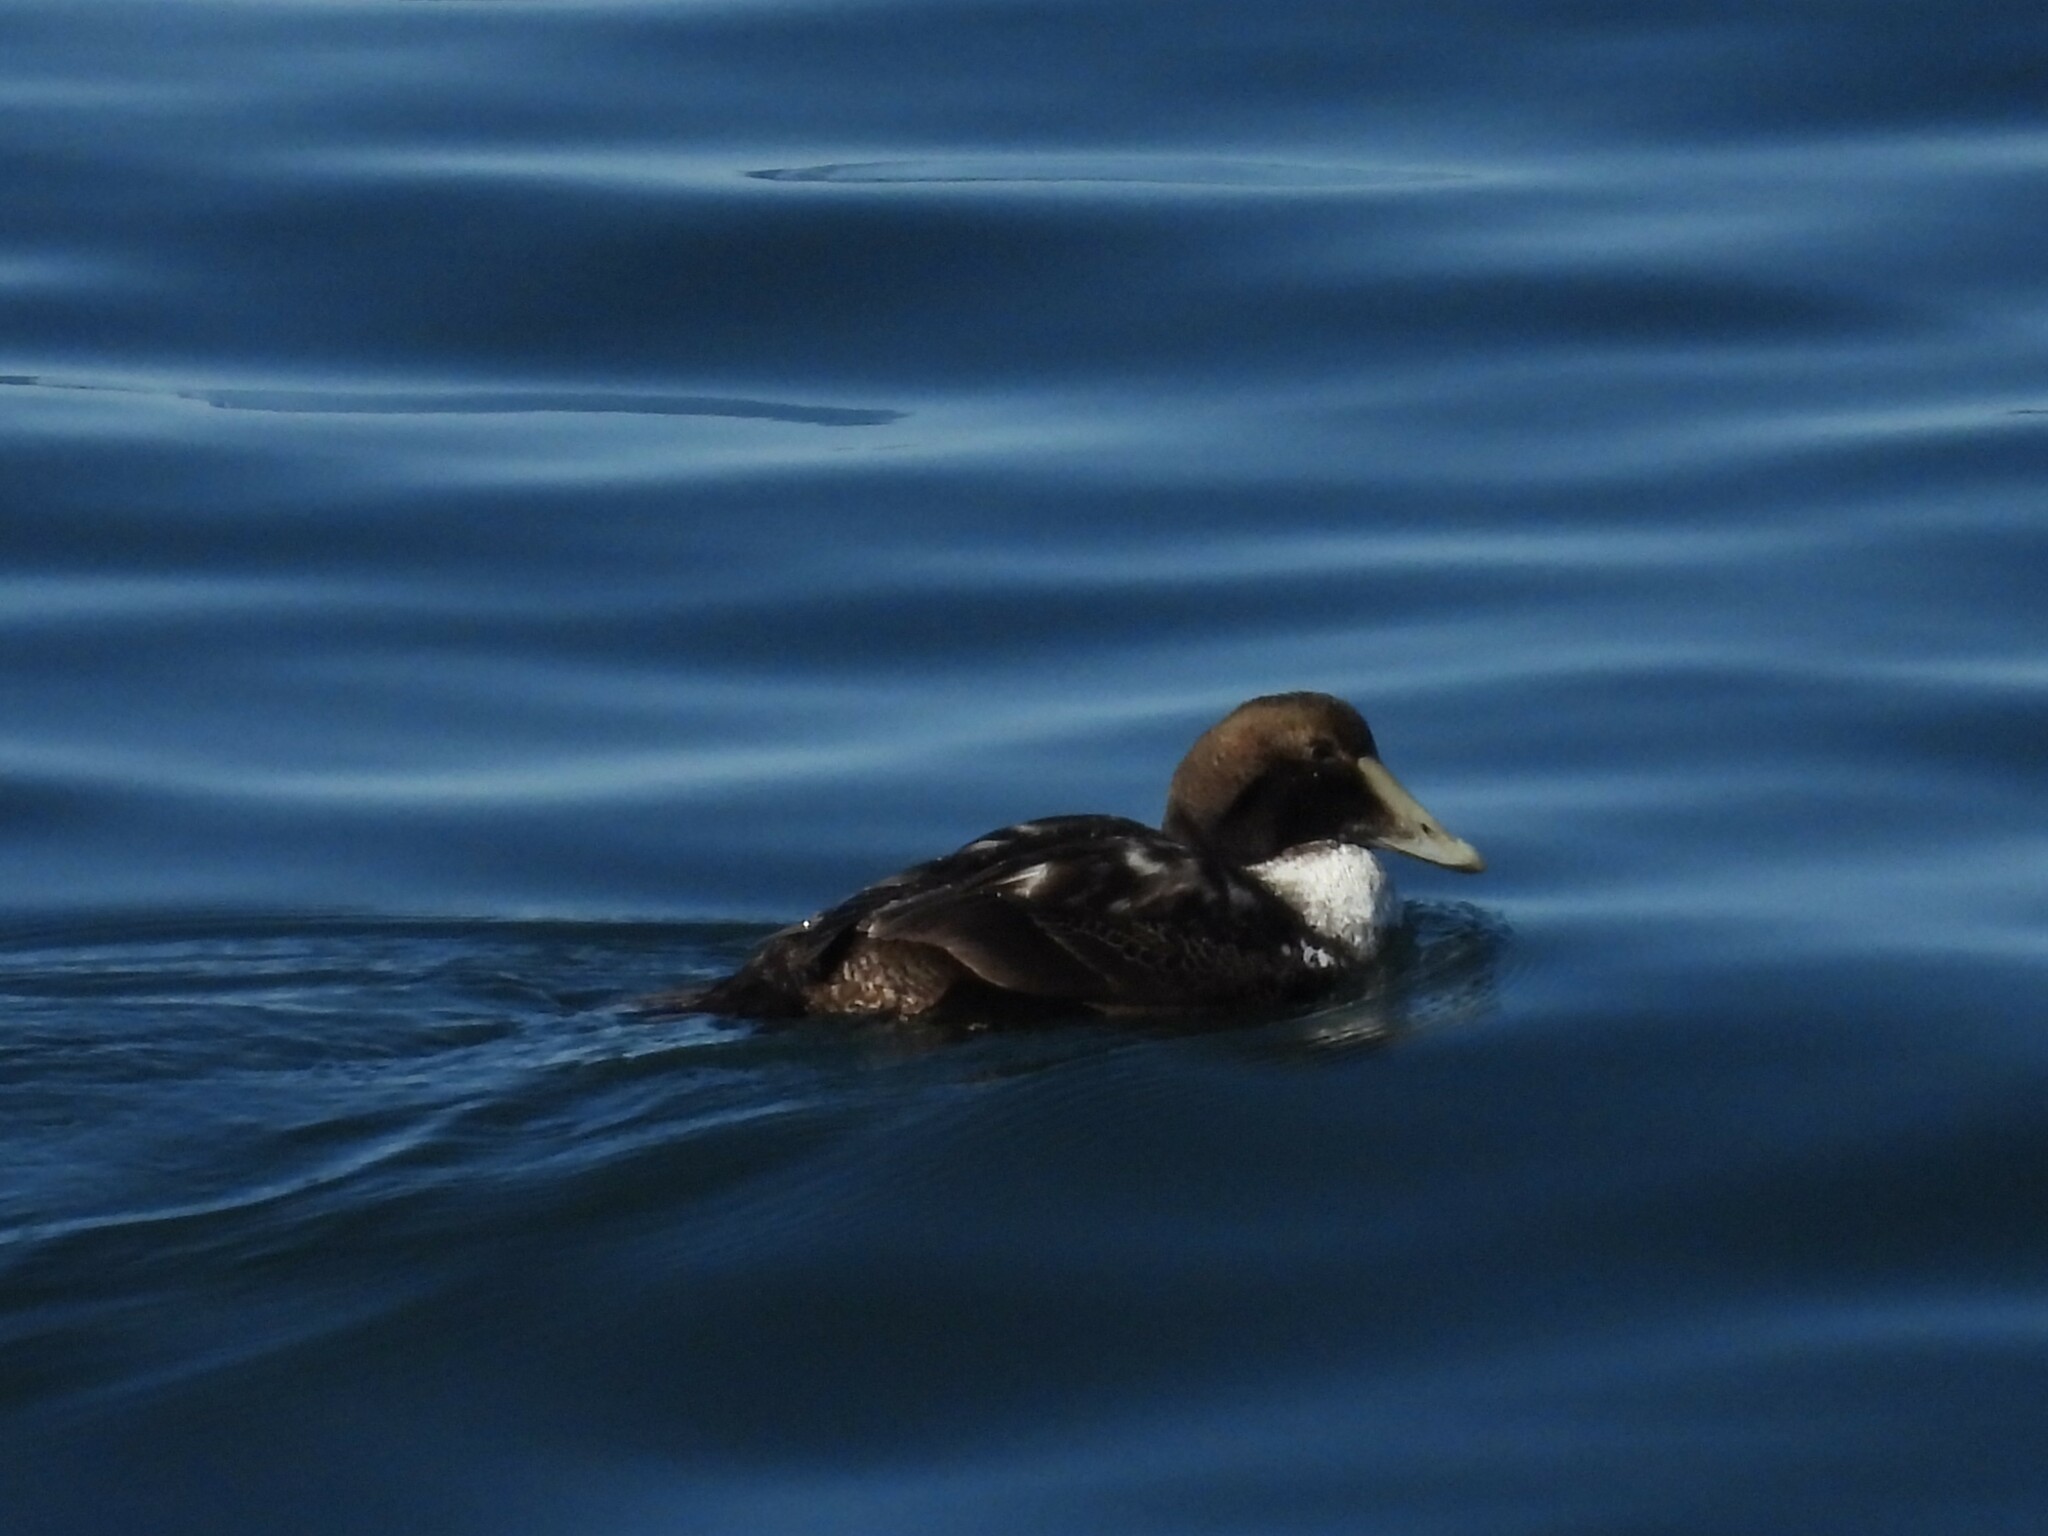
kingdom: Animalia
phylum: Chordata
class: Aves
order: Anseriformes
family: Anatidae
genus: Somateria
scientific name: Somateria mollissima
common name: Common eider
